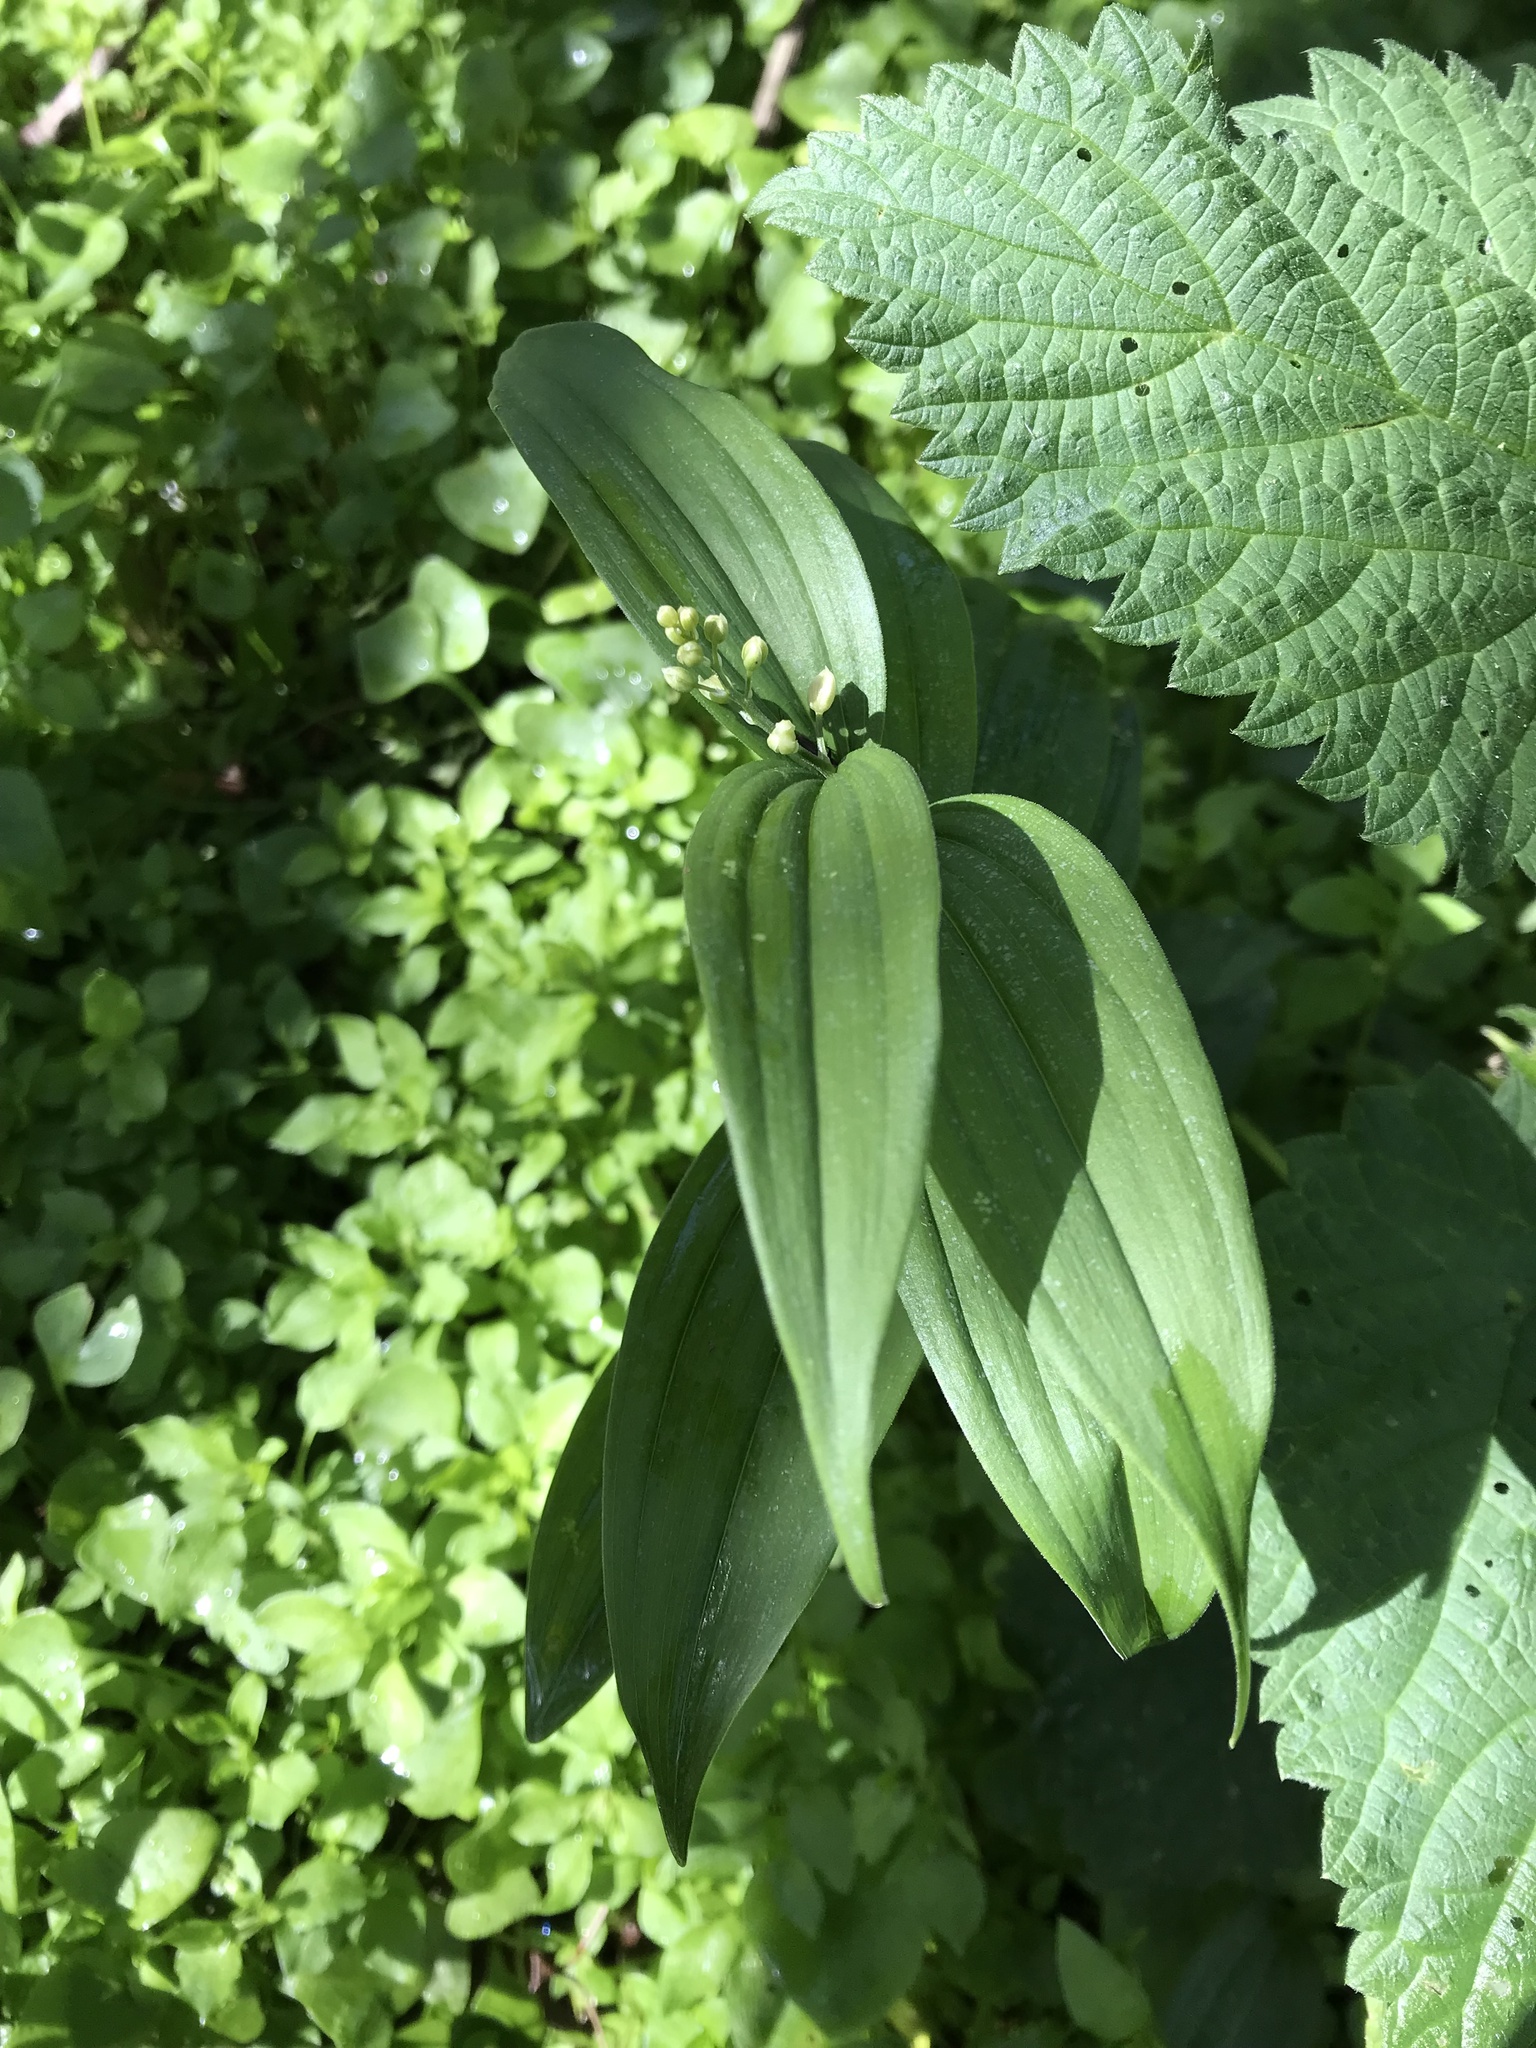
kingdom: Plantae
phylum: Tracheophyta
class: Liliopsida
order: Asparagales
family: Asparagaceae
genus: Maianthemum
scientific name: Maianthemum stellatum
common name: Little false solomon's seal
